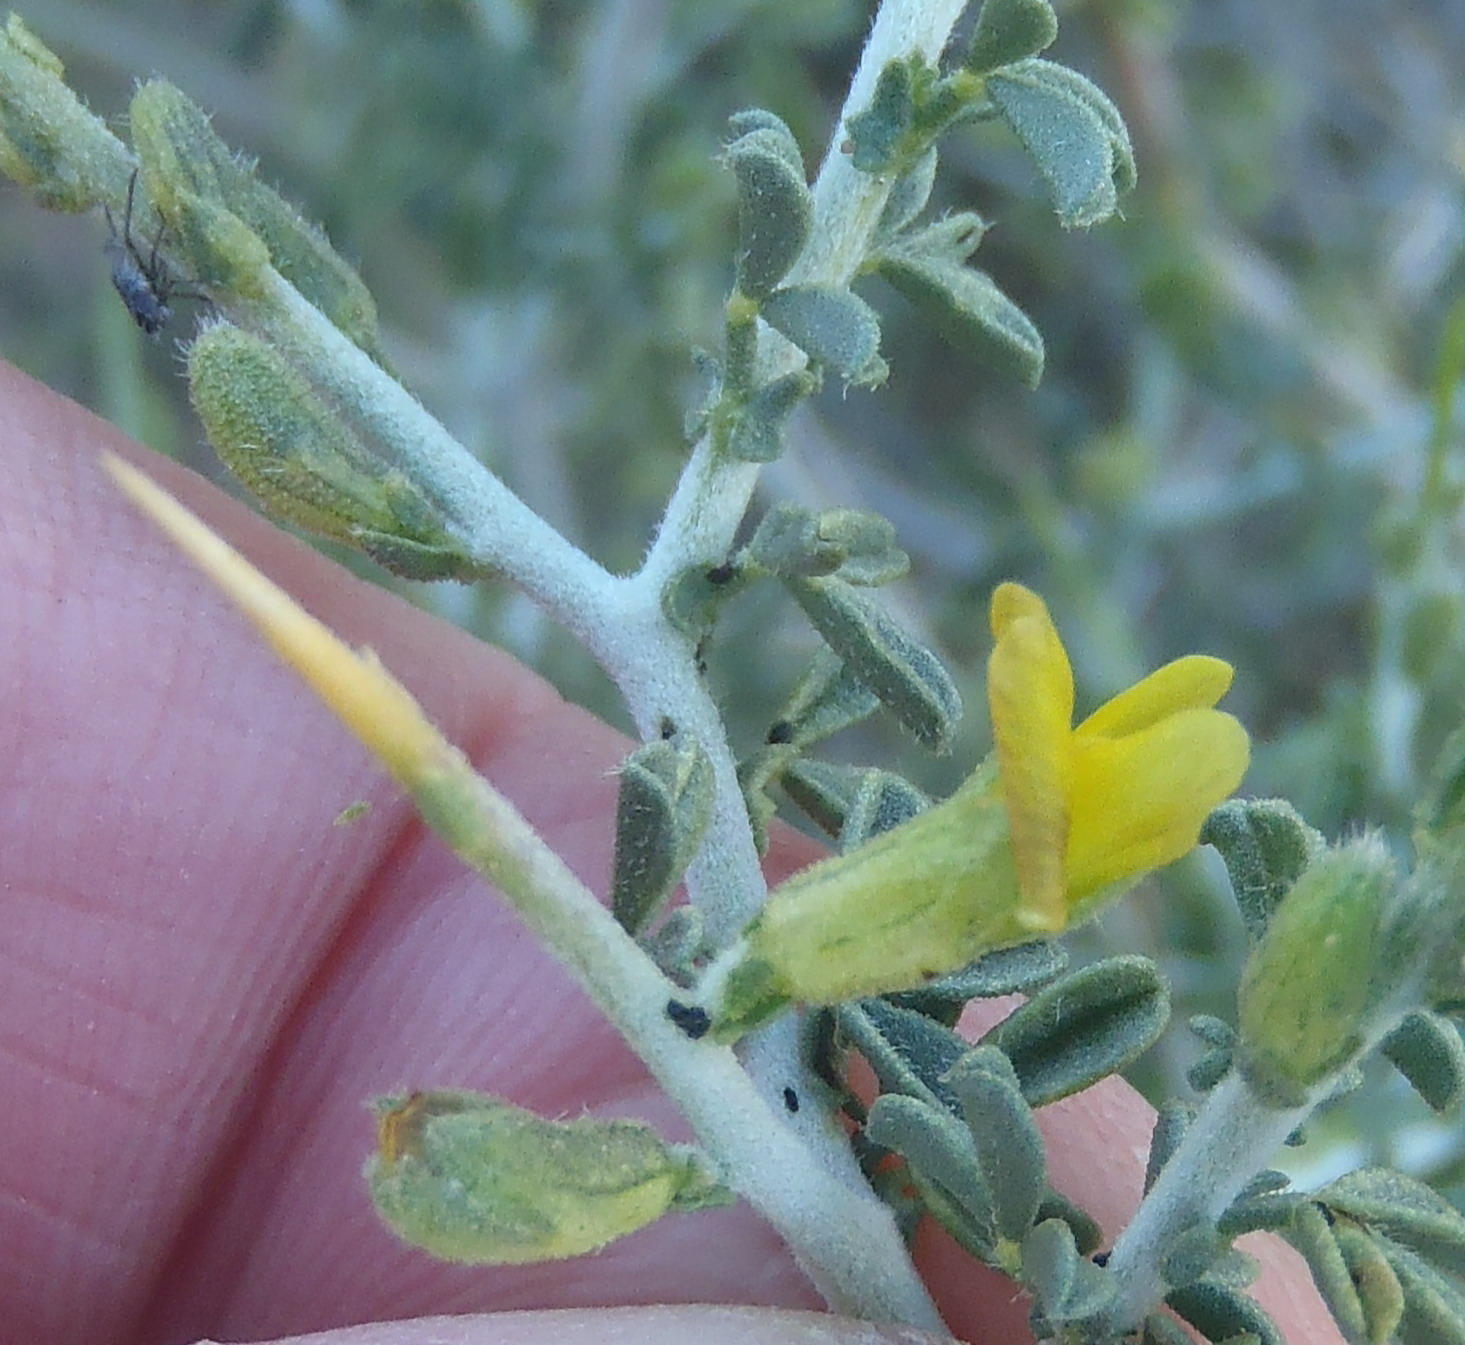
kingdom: Plantae
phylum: Tracheophyta
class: Magnoliopsida
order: Fabales
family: Fabaceae
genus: Melolobium
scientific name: Melolobium candicans
